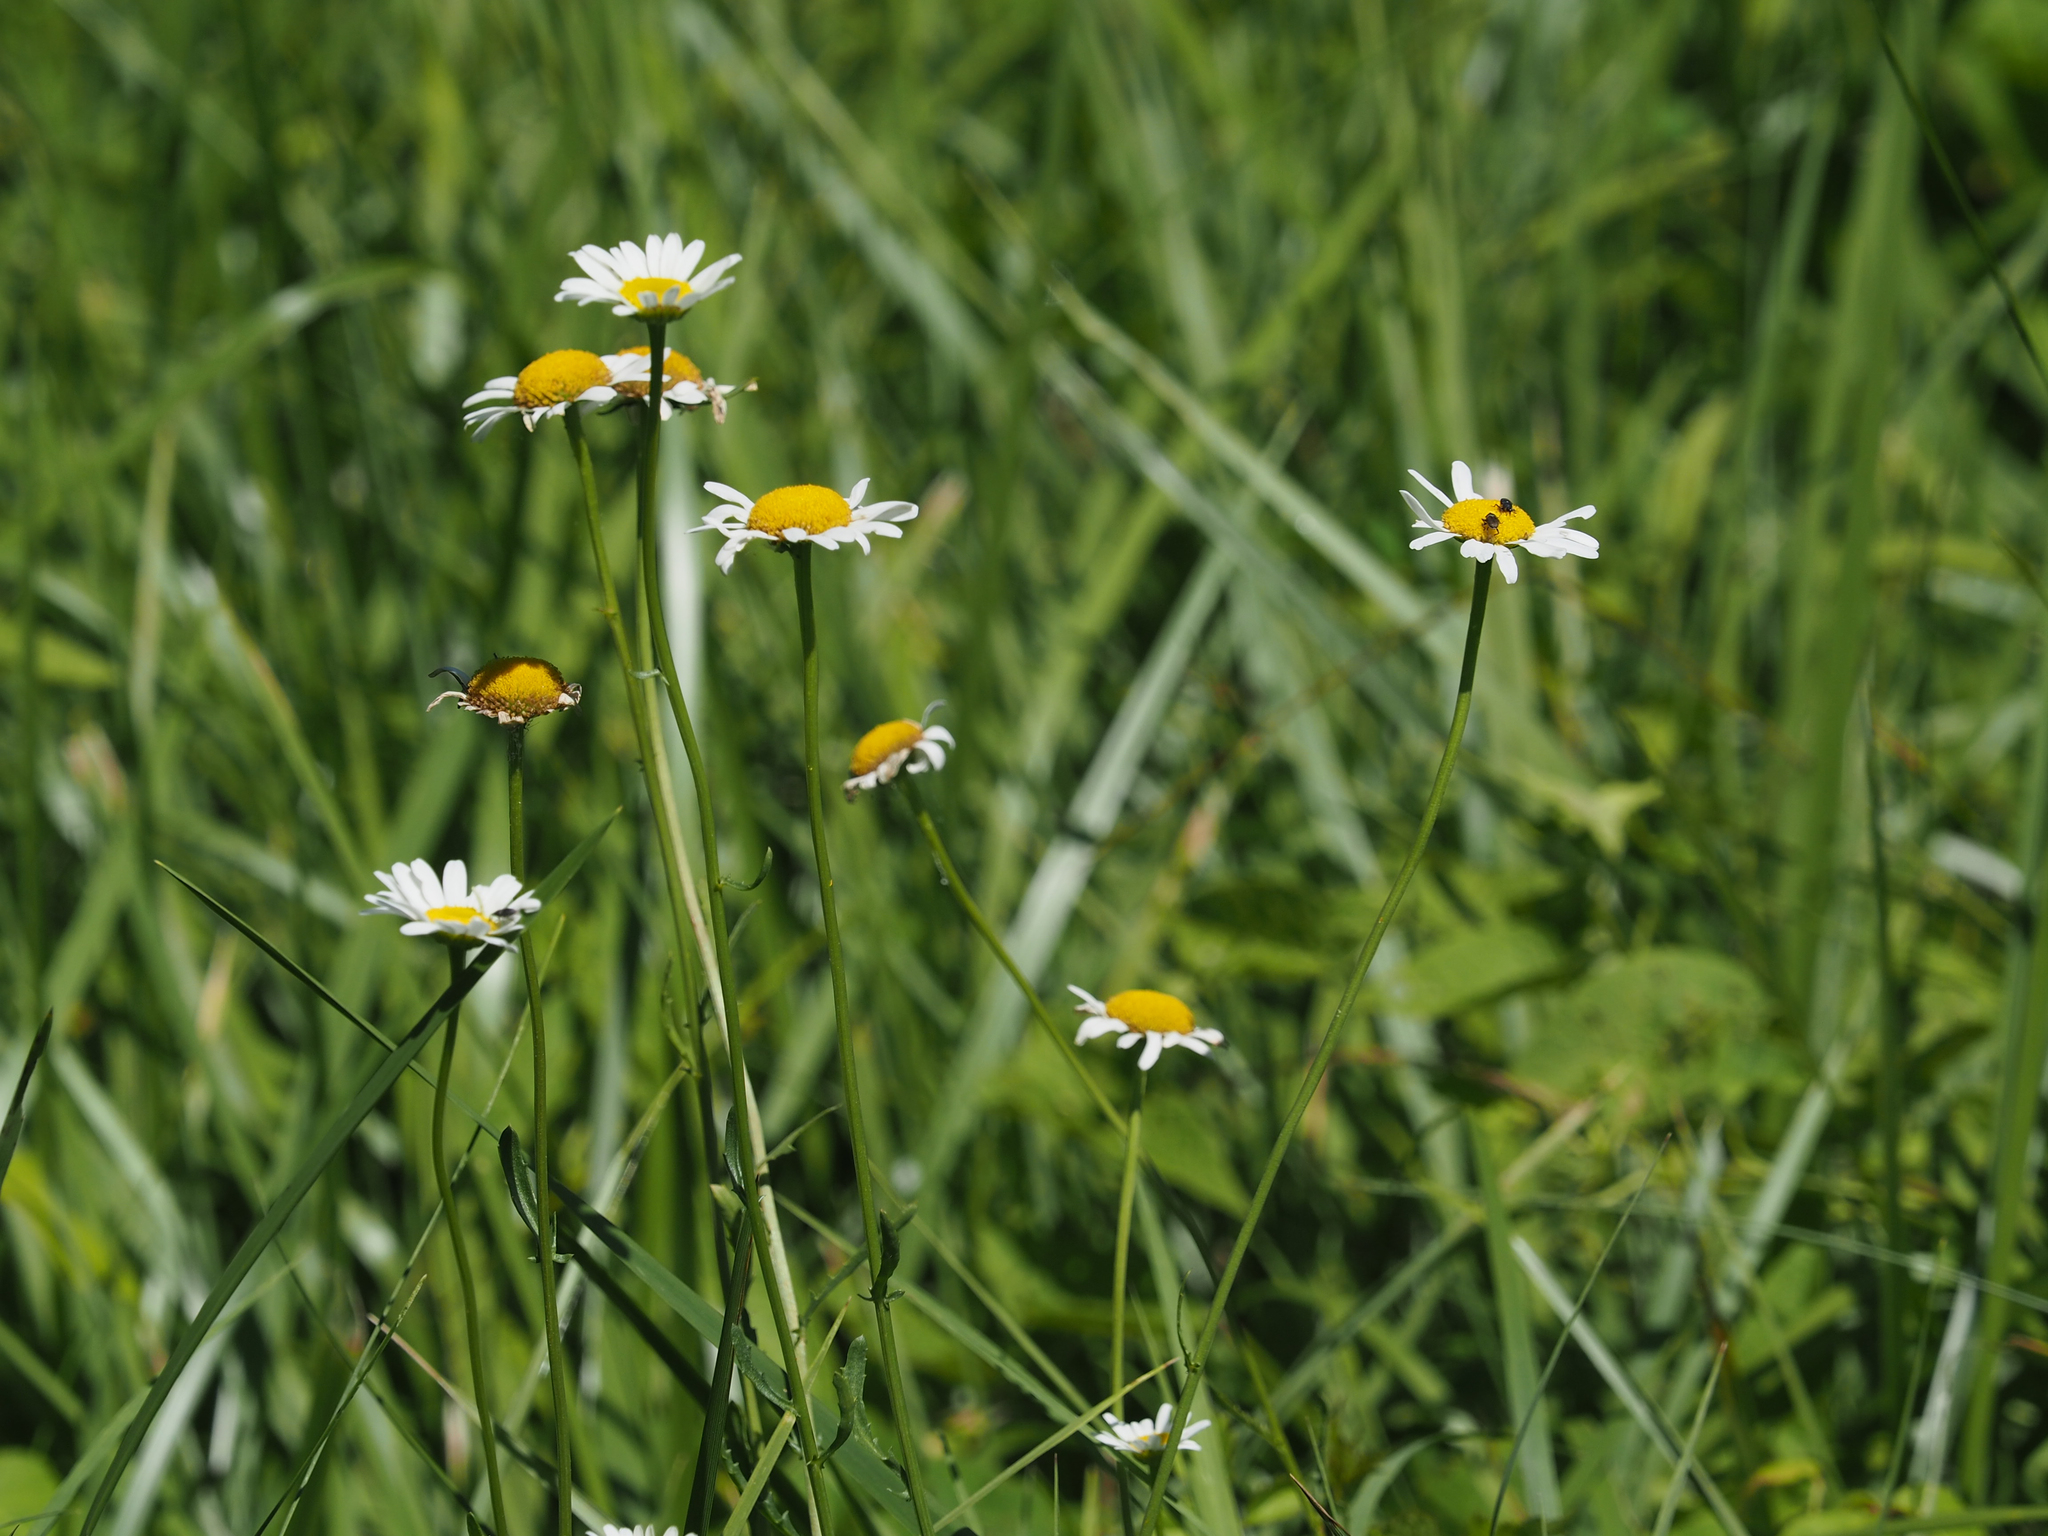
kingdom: Plantae
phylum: Tracheophyta
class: Magnoliopsida
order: Asterales
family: Asteraceae
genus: Leucanthemum
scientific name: Leucanthemum vulgare
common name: Oxeye daisy
